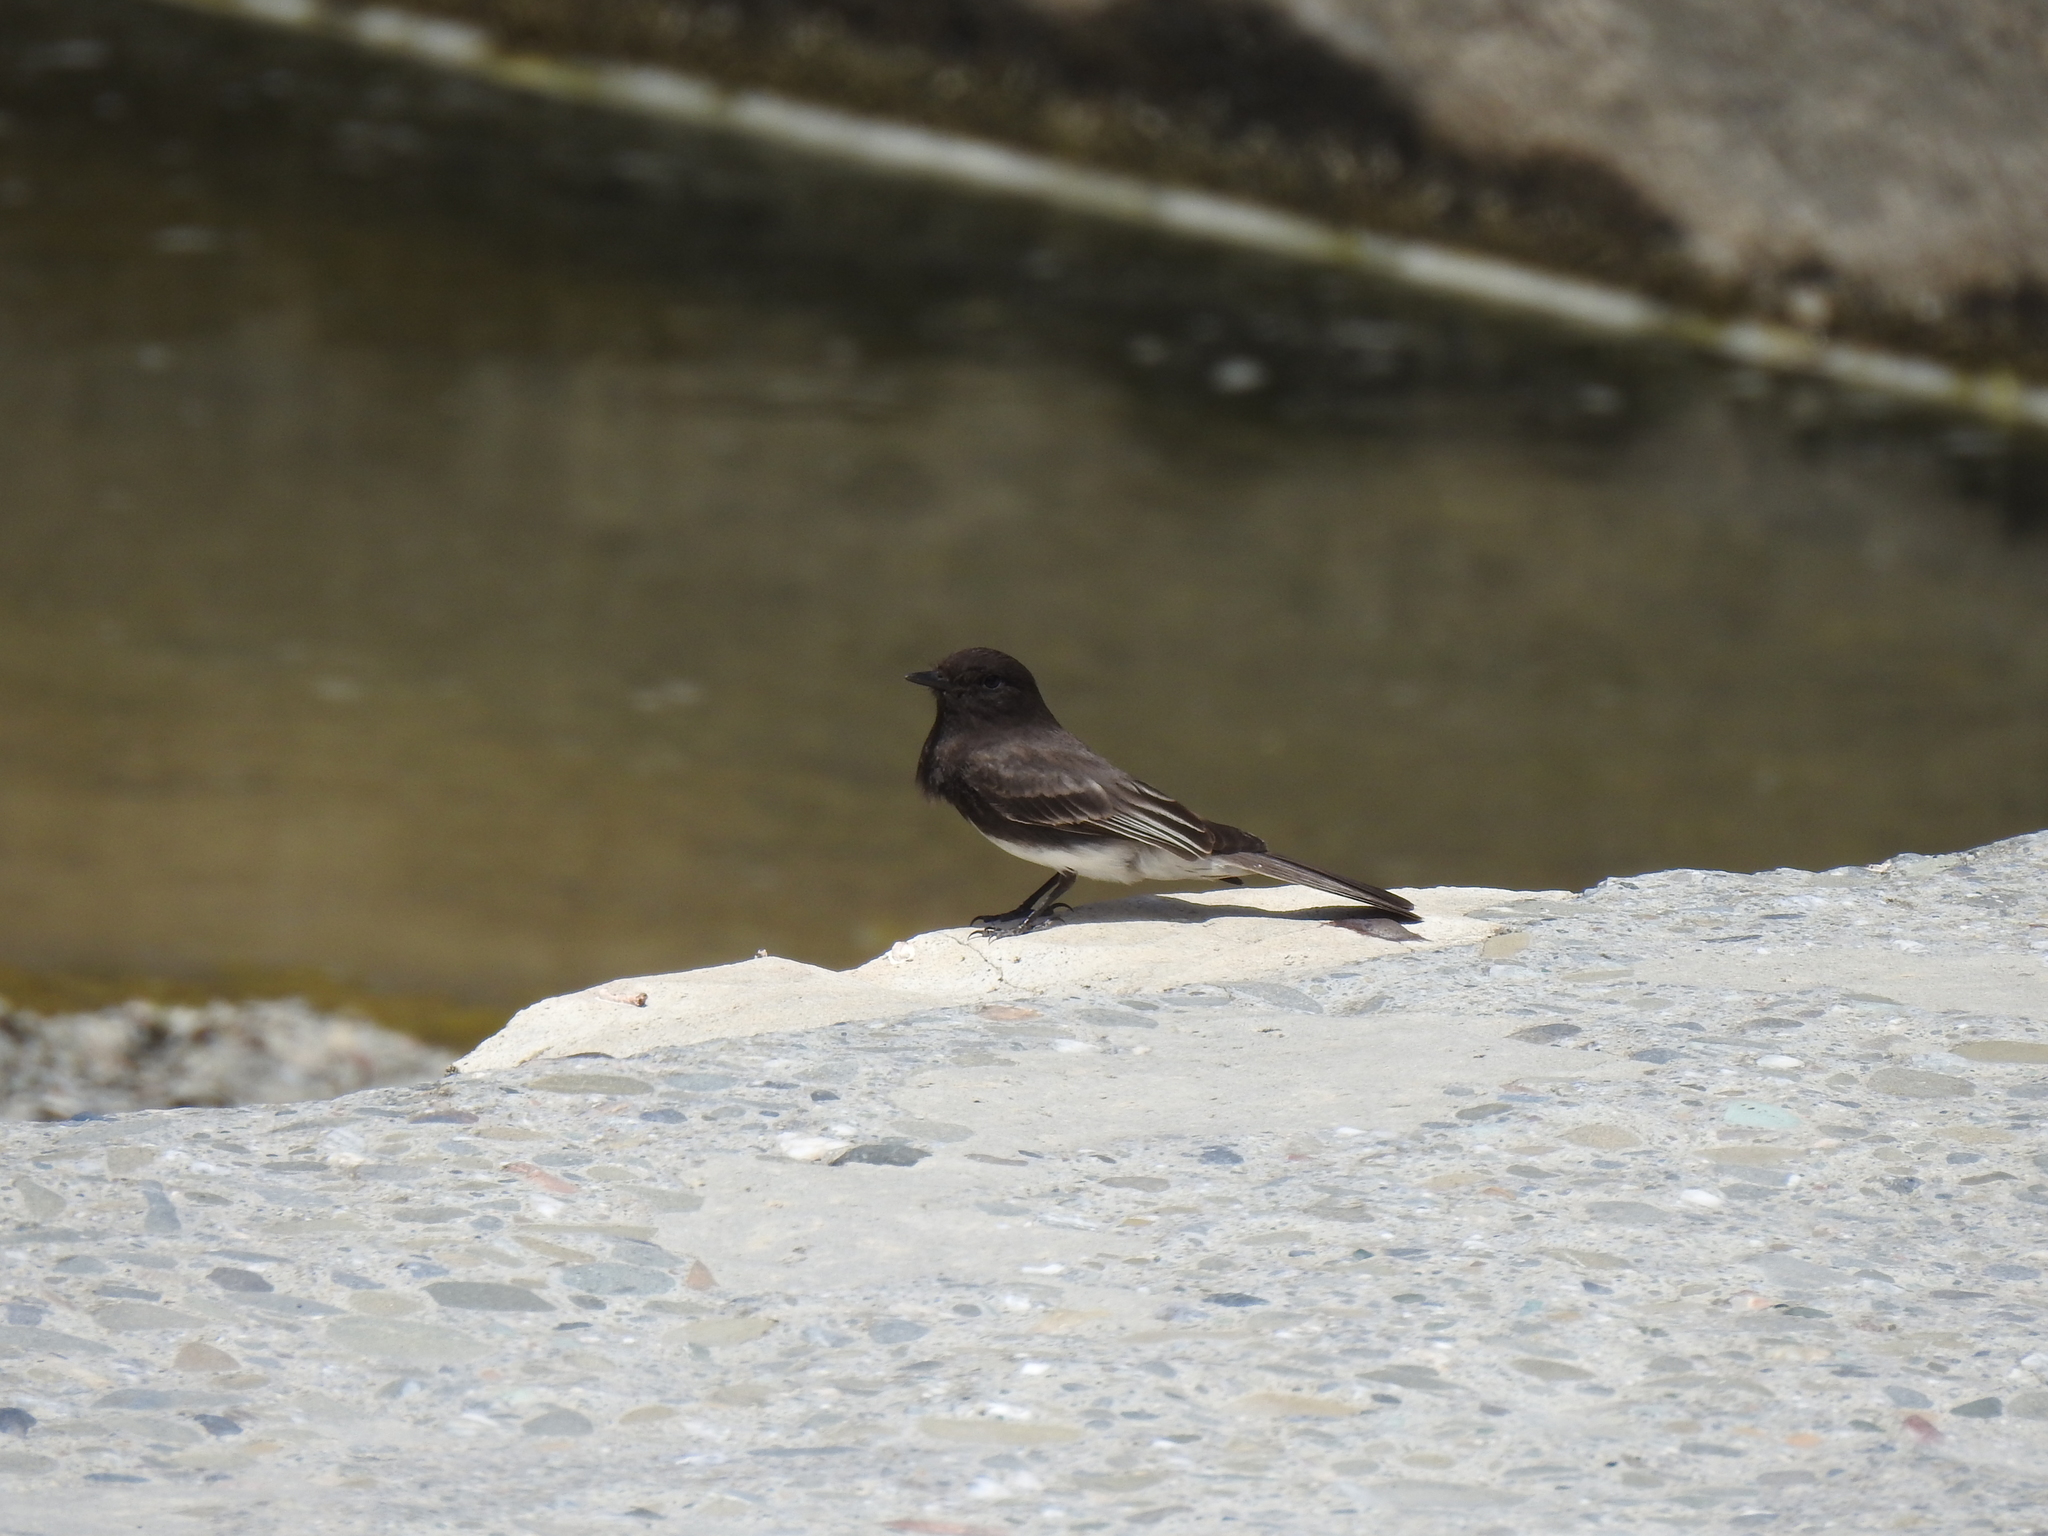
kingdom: Animalia
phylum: Chordata
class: Aves
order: Passeriformes
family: Tyrannidae
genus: Sayornis
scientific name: Sayornis nigricans
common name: Black phoebe
